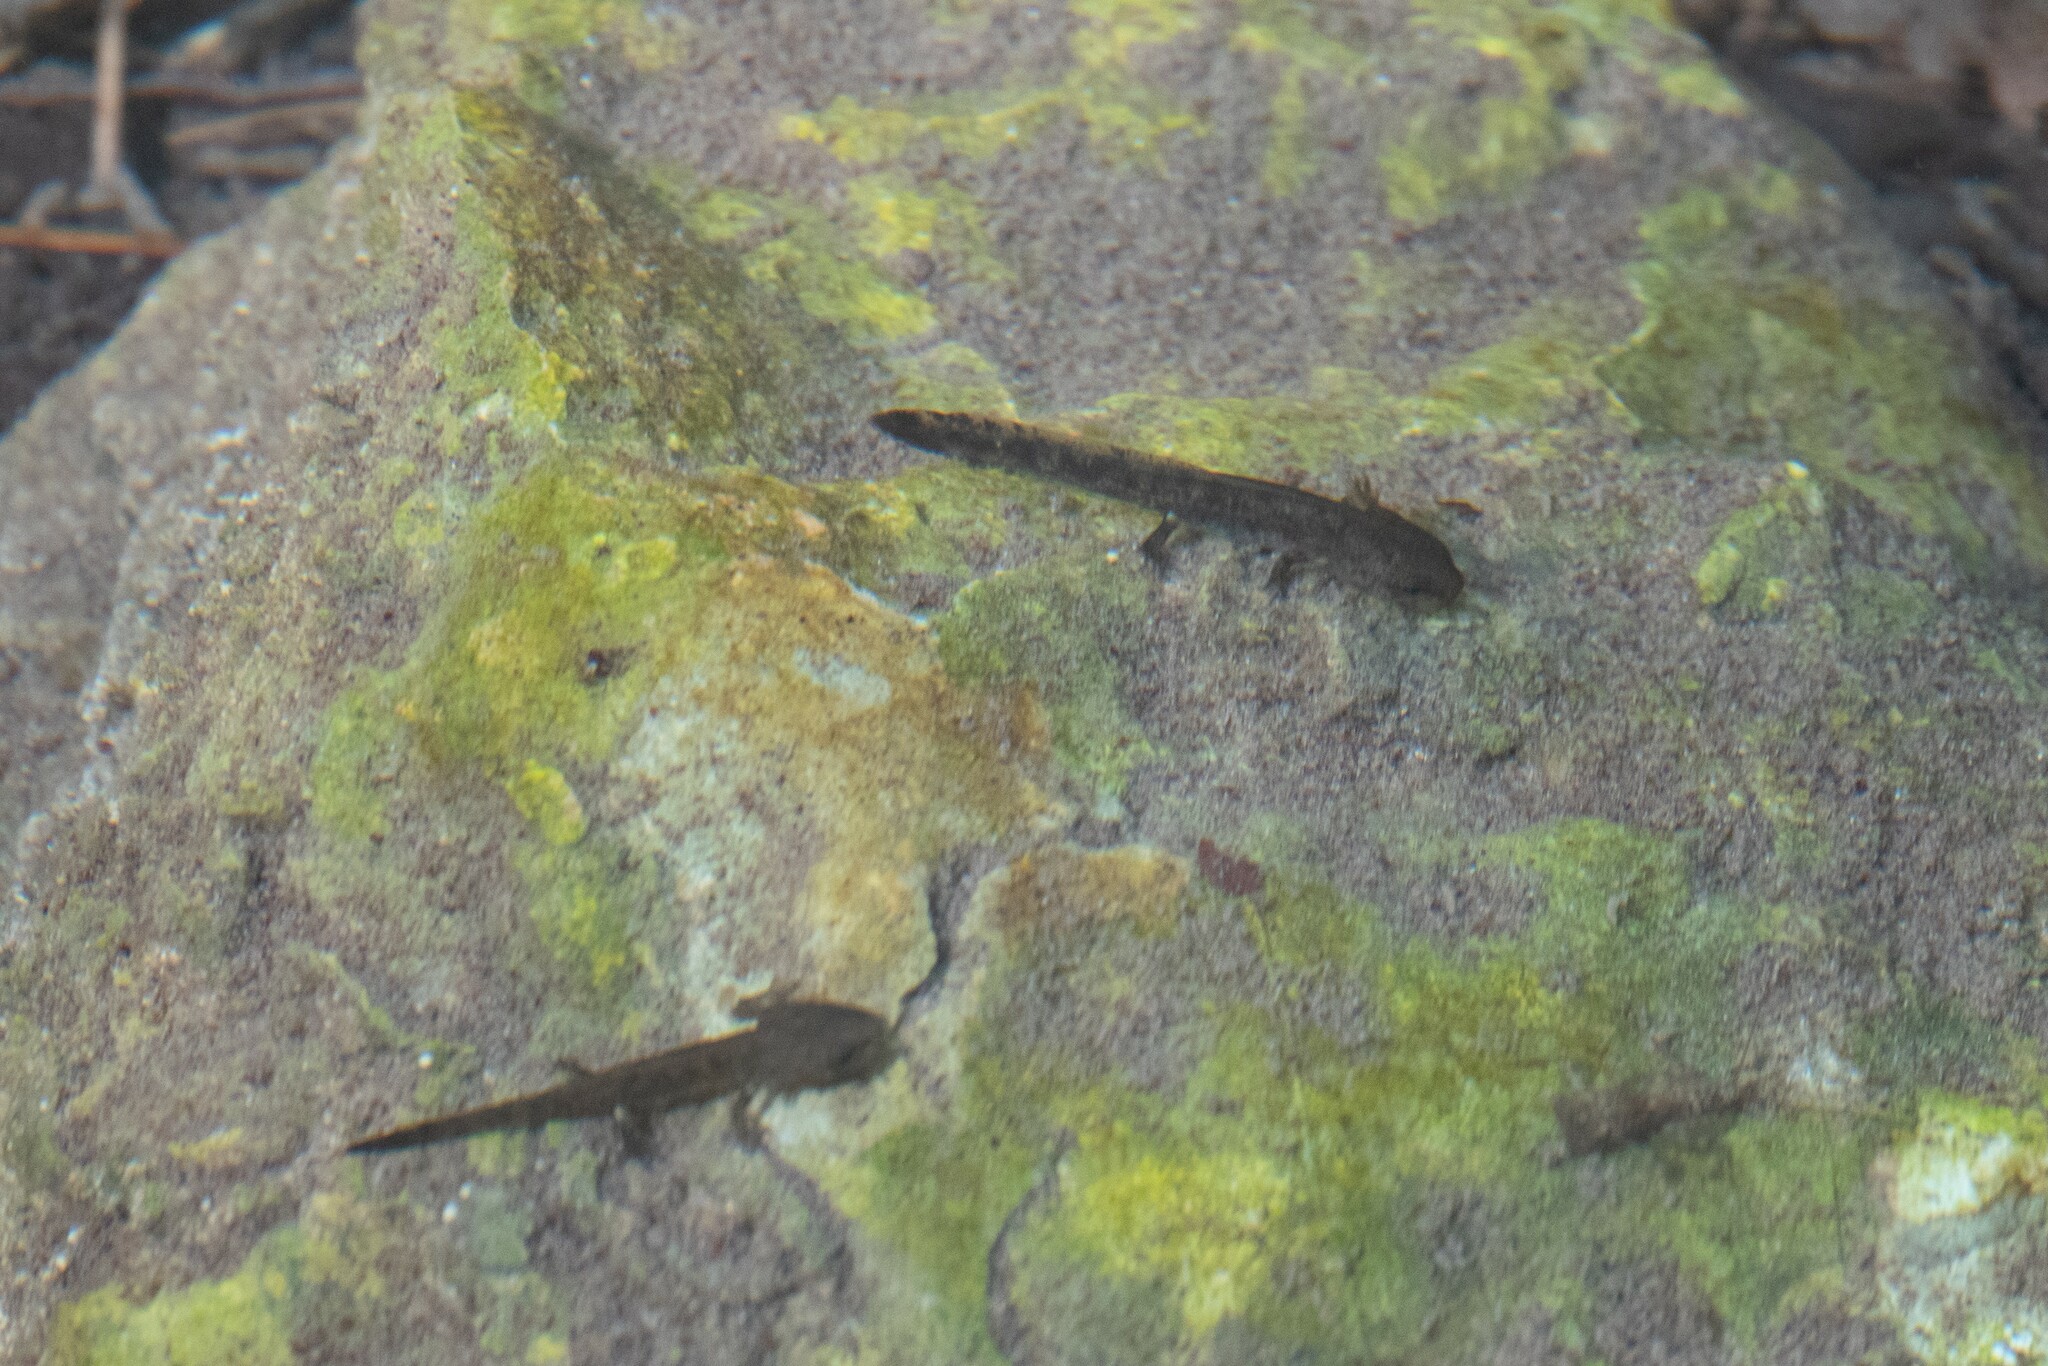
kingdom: Animalia
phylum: Chordata
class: Amphibia
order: Caudata
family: Salamandridae
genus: Salamandra
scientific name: Salamandra salamandra
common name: Fire salamander
